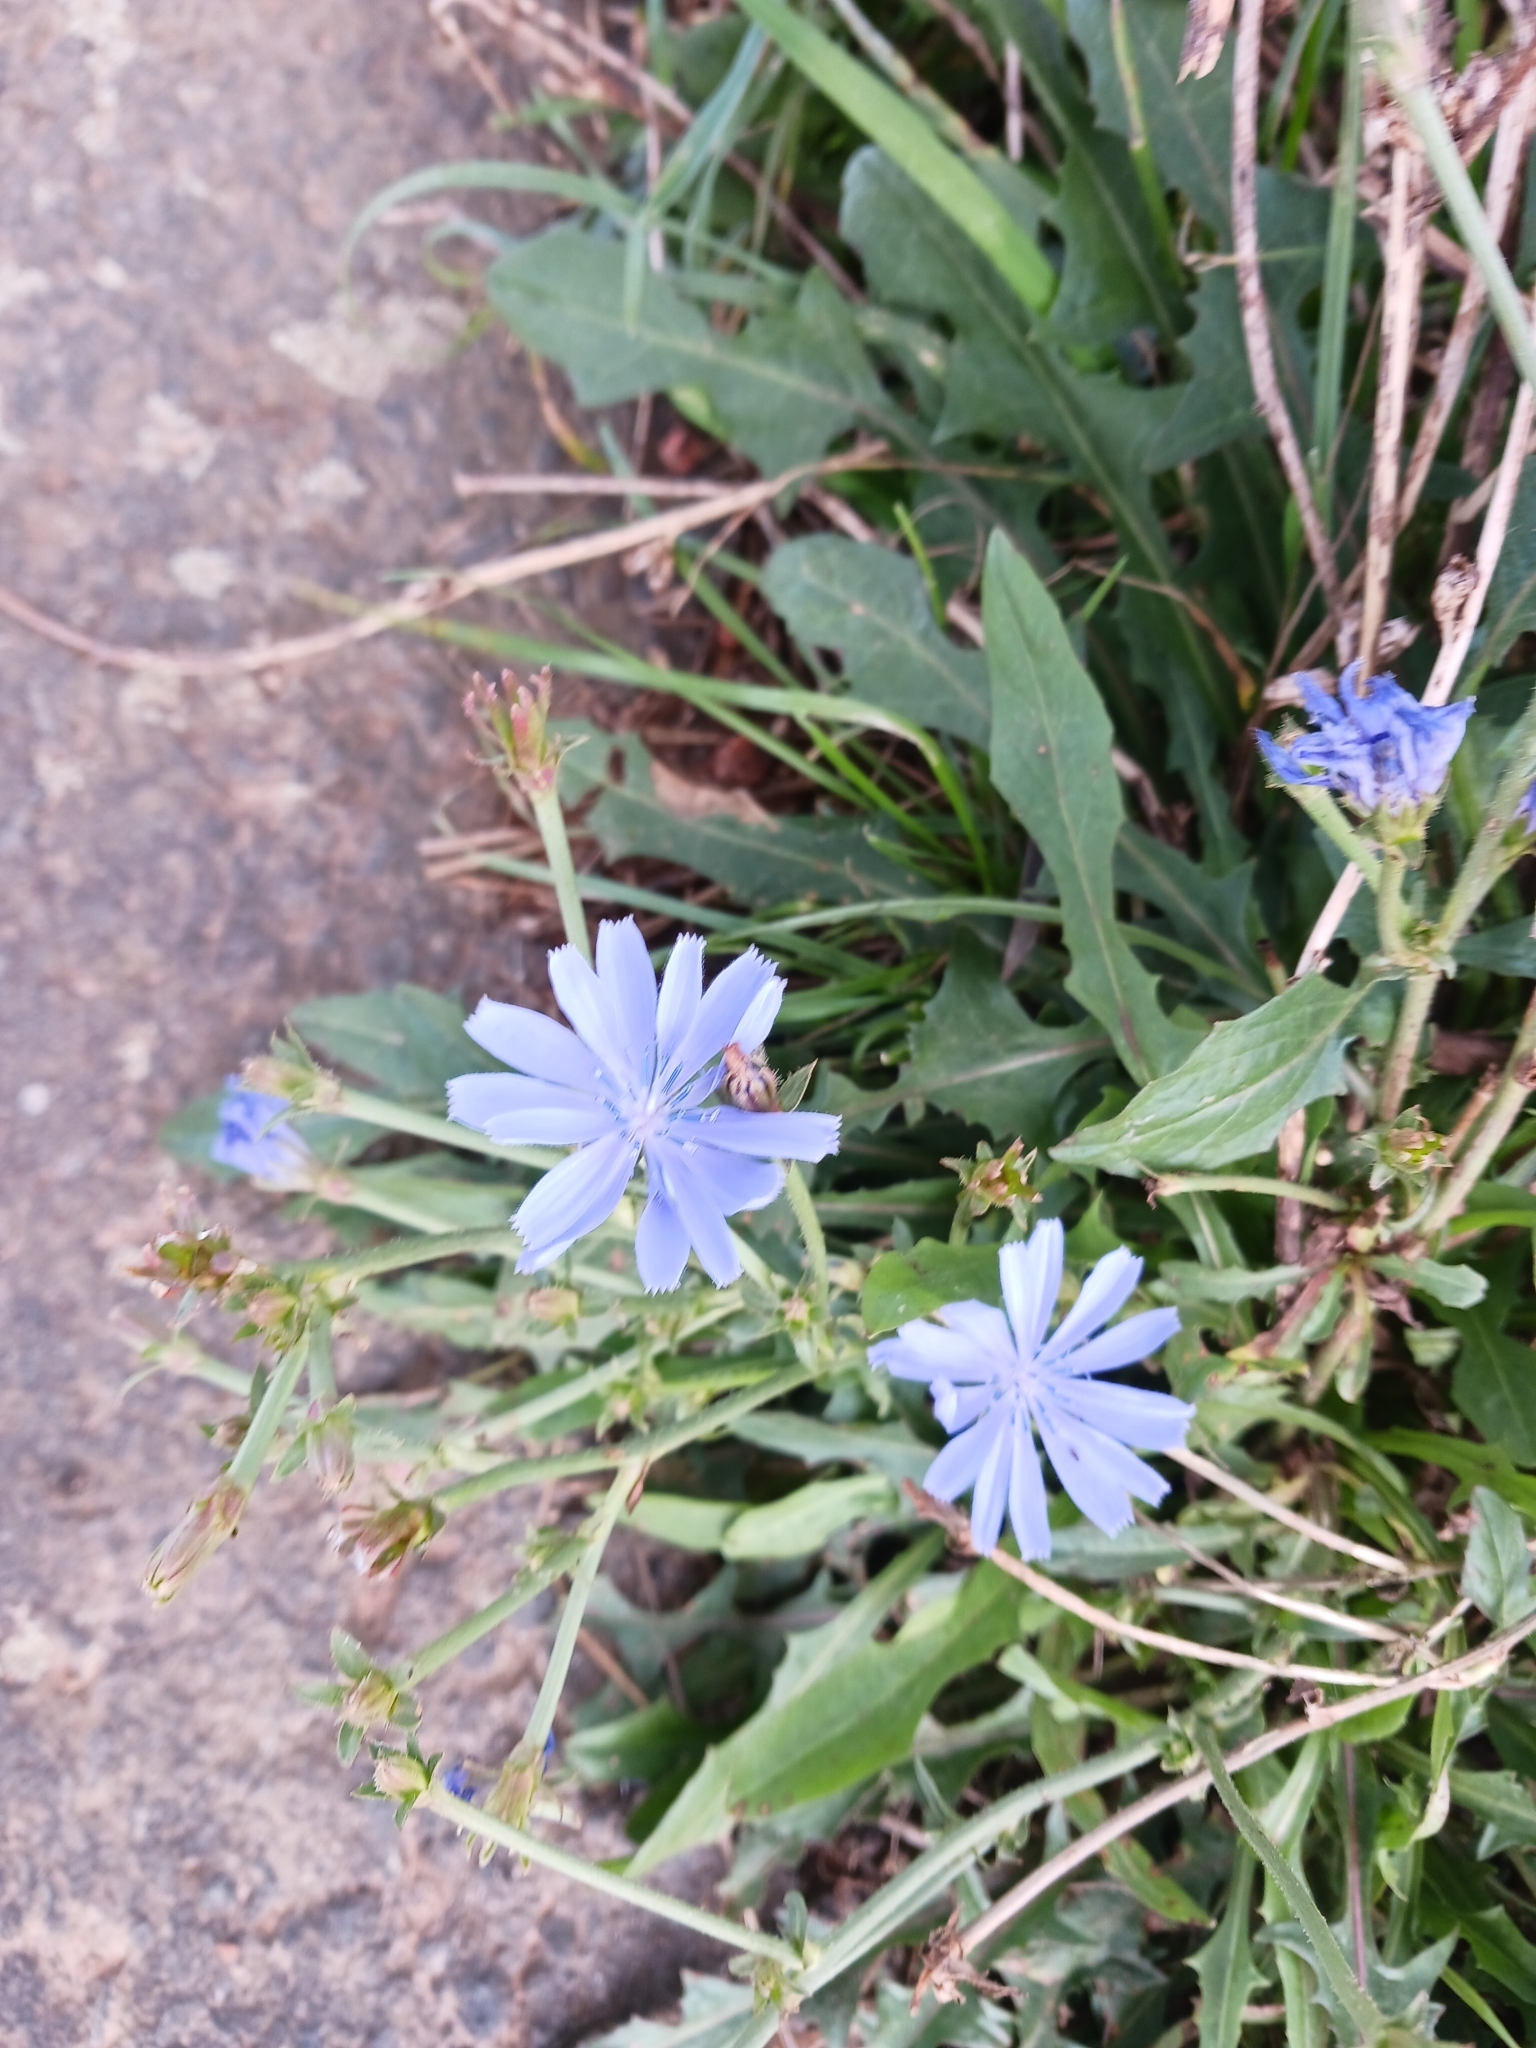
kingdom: Plantae
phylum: Tracheophyta
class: Magnoliopsida
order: Asterales
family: Asteraceae
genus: Cichorium
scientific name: Cichorium intybus
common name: Chicory
